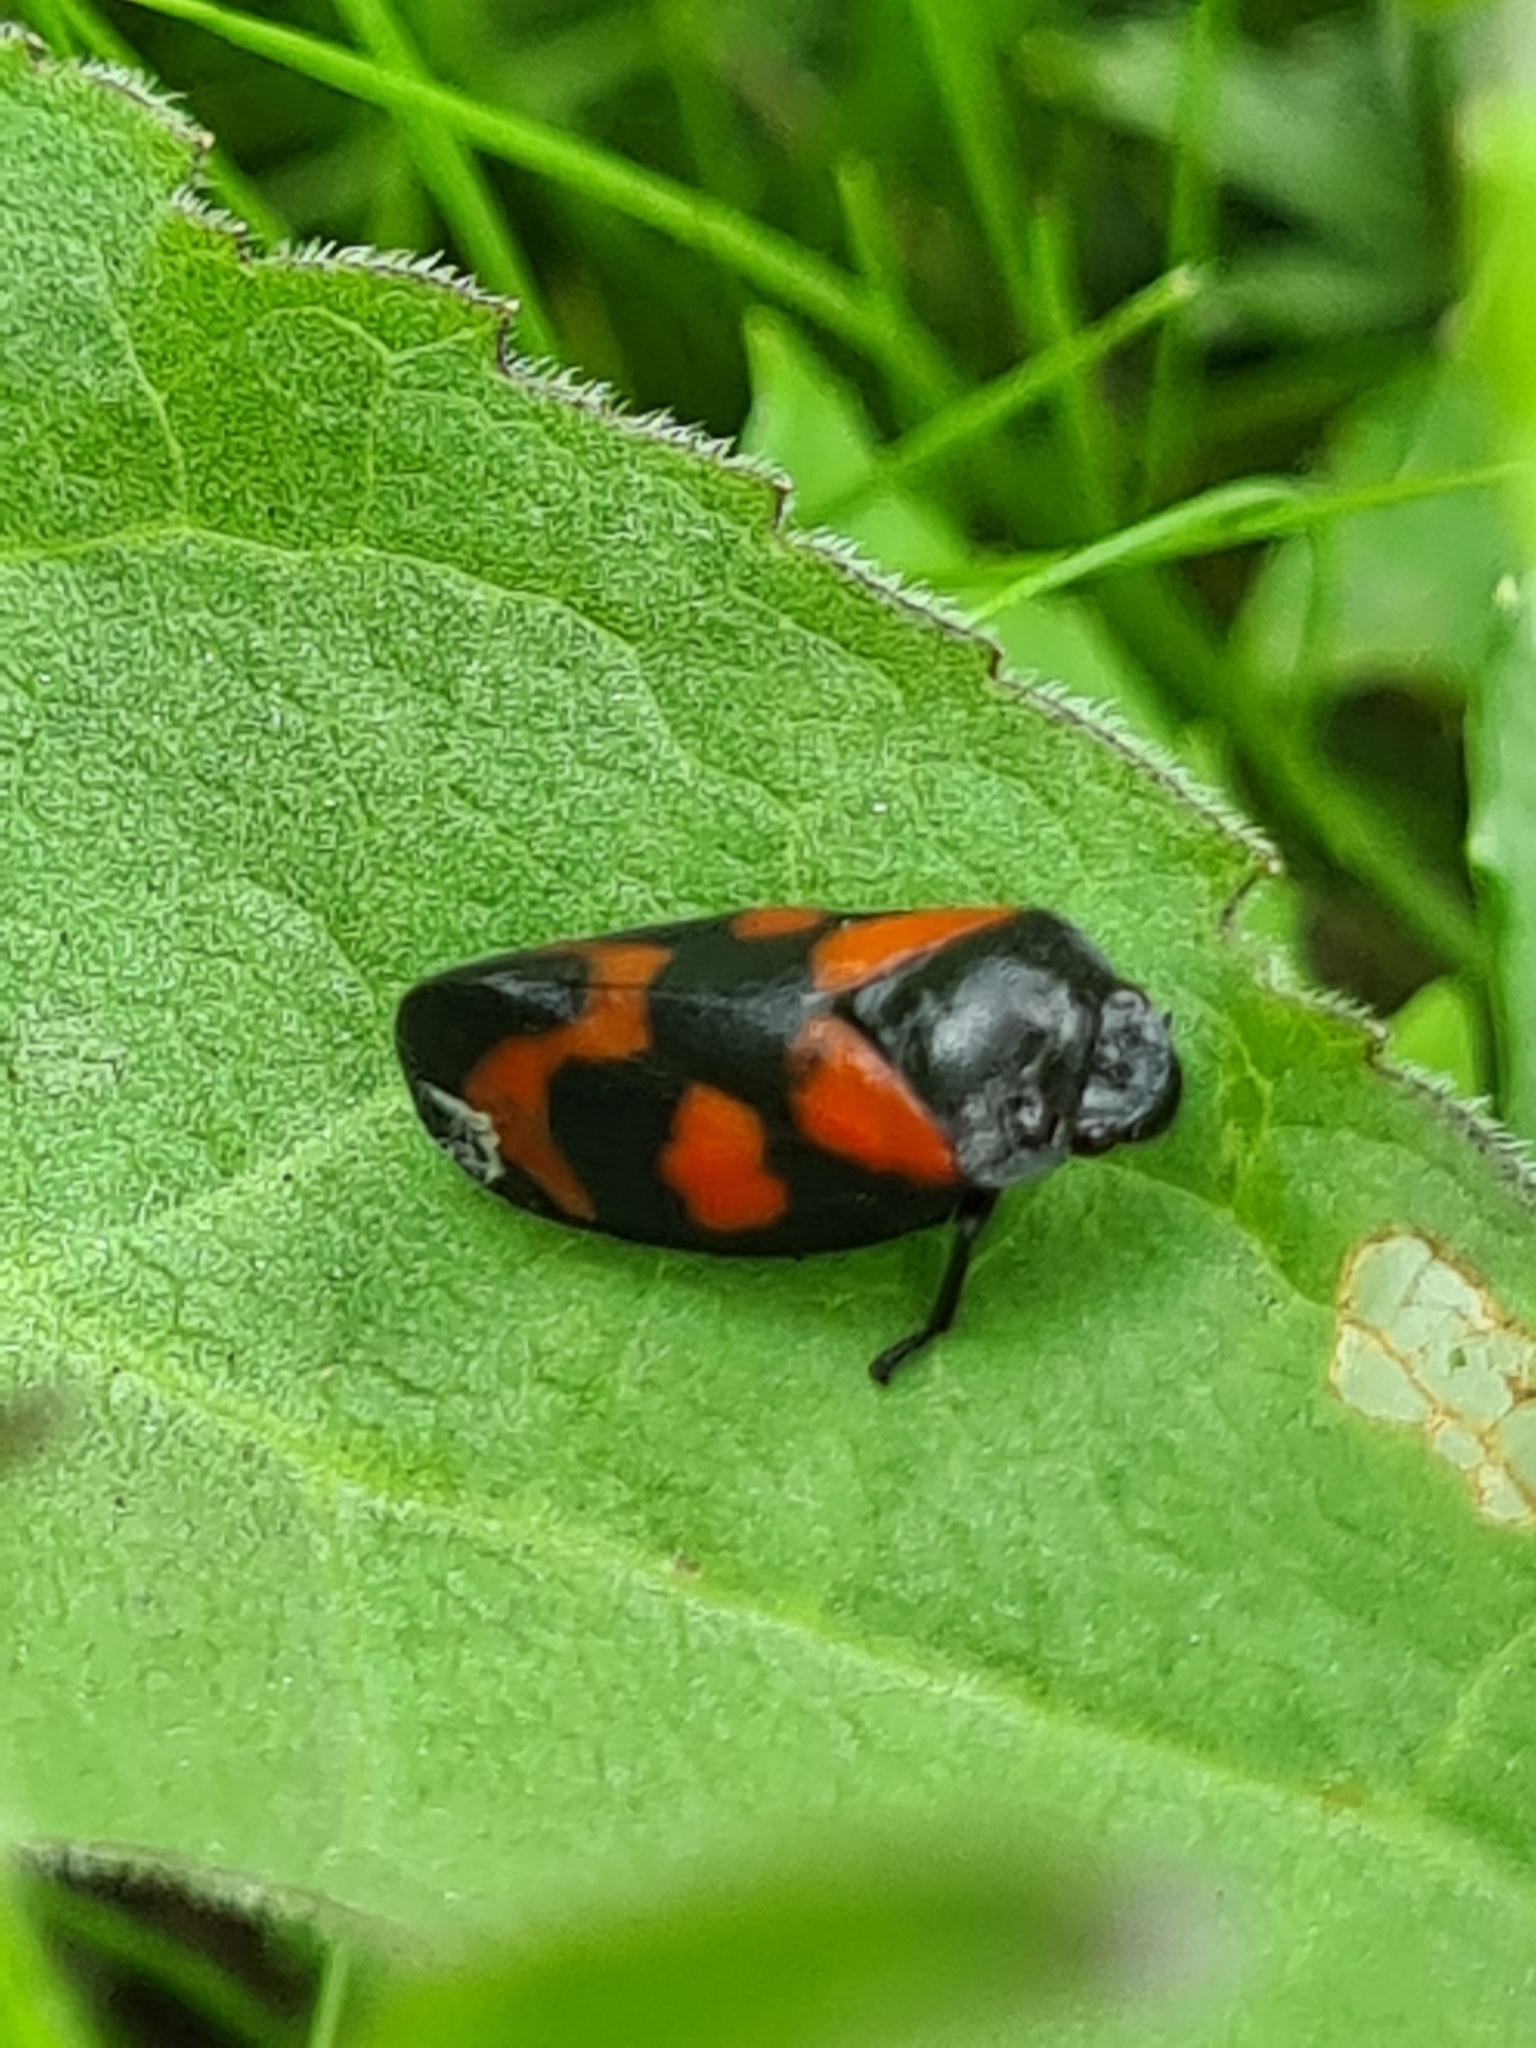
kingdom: Animalia
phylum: Arthropoda
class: Insecta
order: Hemiptera
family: Cercopidae
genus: Cercopis
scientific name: Cercopis vulnerata
